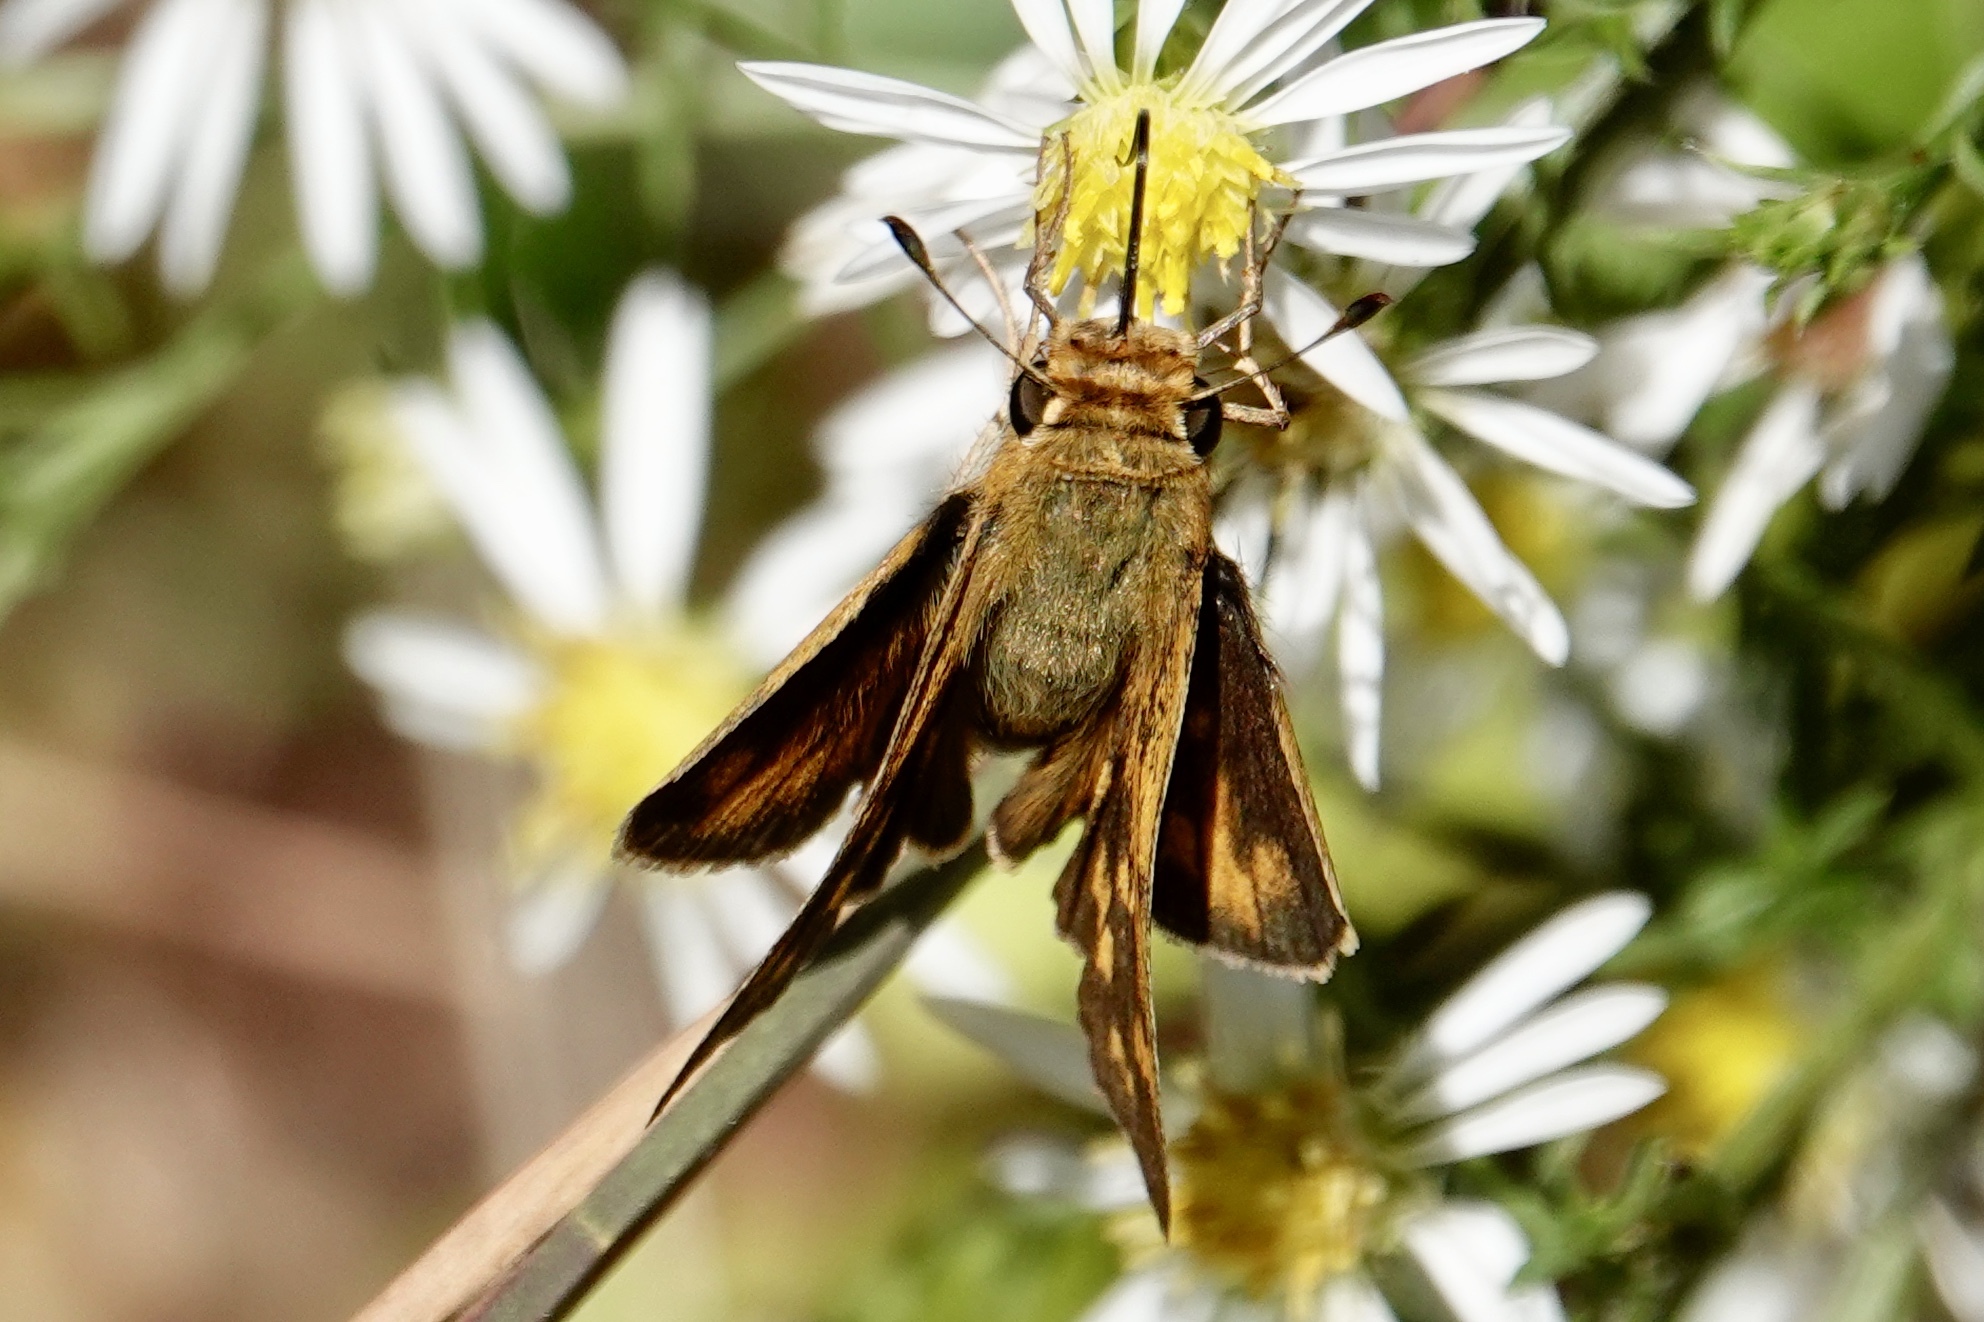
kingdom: Animalia
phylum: Arthropoda
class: Insecta
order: Lepidoptera
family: Hesperiidae
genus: Hylephila
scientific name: Hylephila phyleus
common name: Fiery skipper
